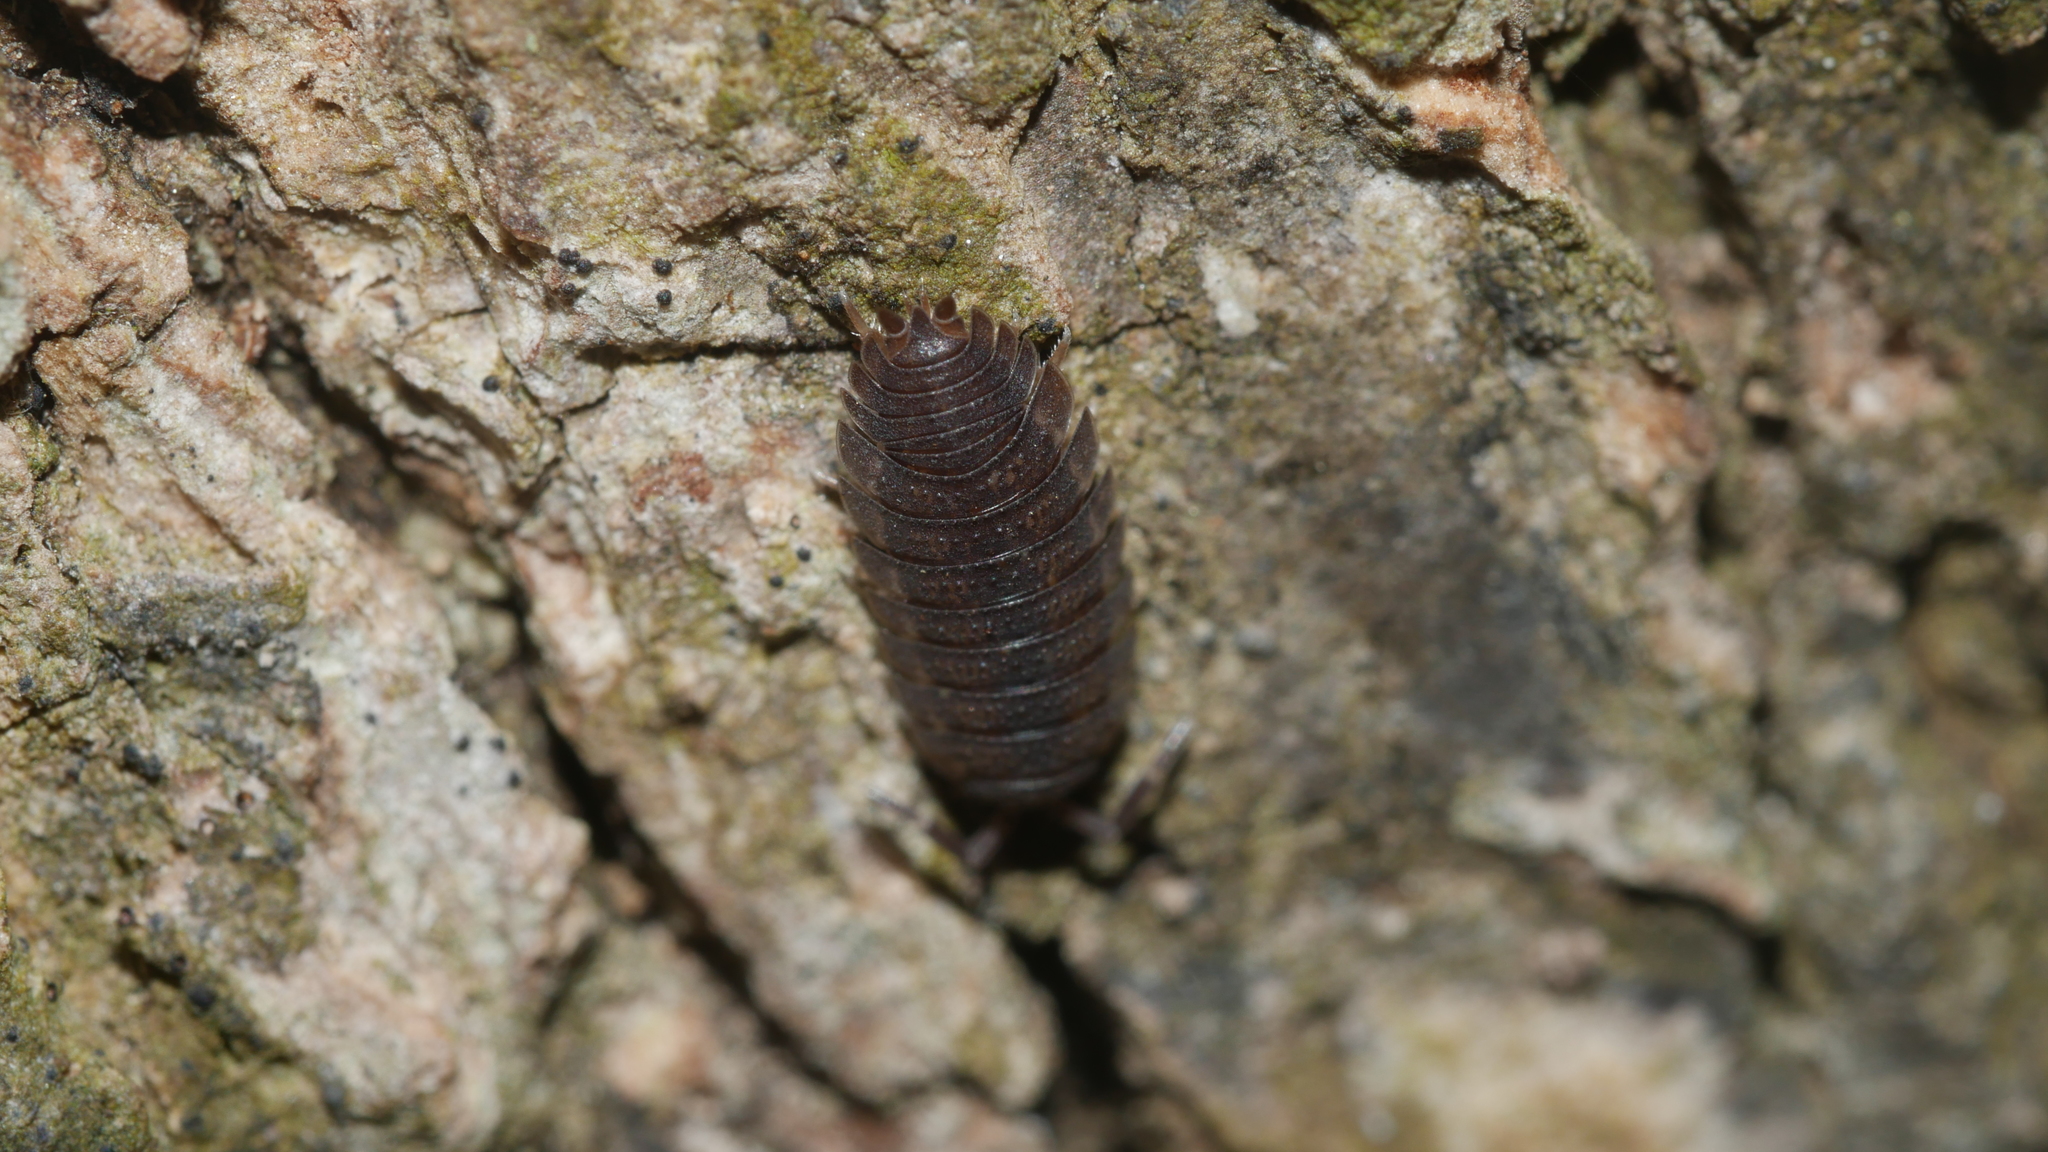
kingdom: Animalia
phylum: Arthropoda
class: Malacostraca
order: Isopoda
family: Porcellionidae
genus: Porcellio
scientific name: Porcellio scaber
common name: Common rough woodlouse
